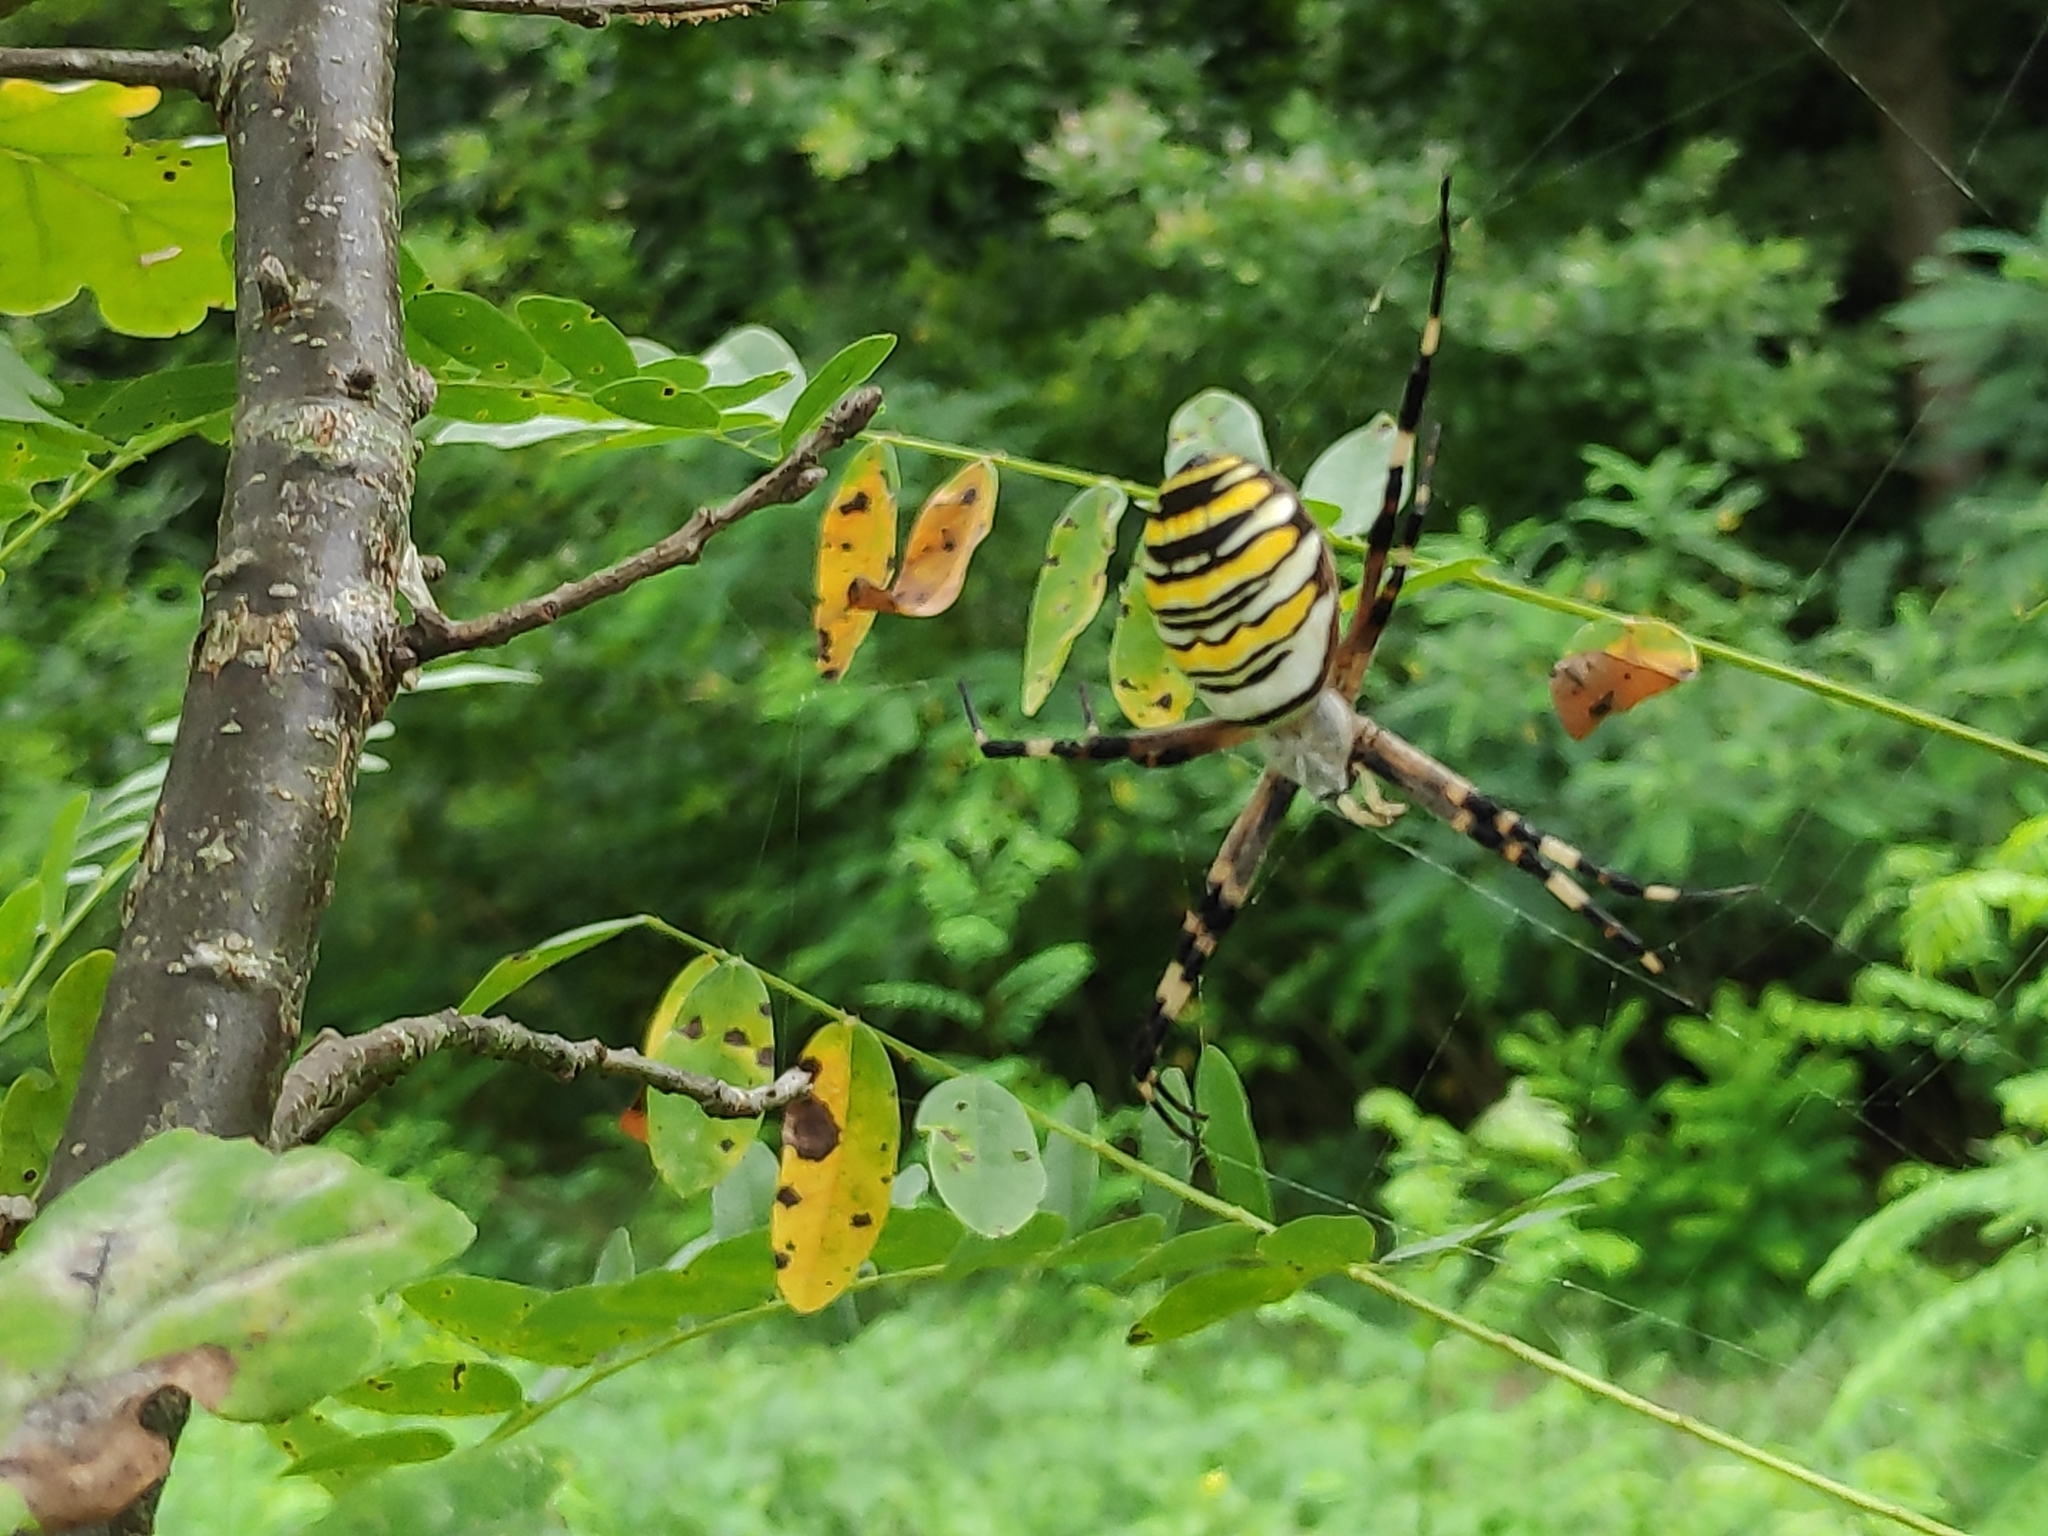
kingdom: Animalia
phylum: Arthropoda
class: Arachnida
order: Araneae
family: Araneidae
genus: Argiope
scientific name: Argiope bruennichi
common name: Wasp spider
